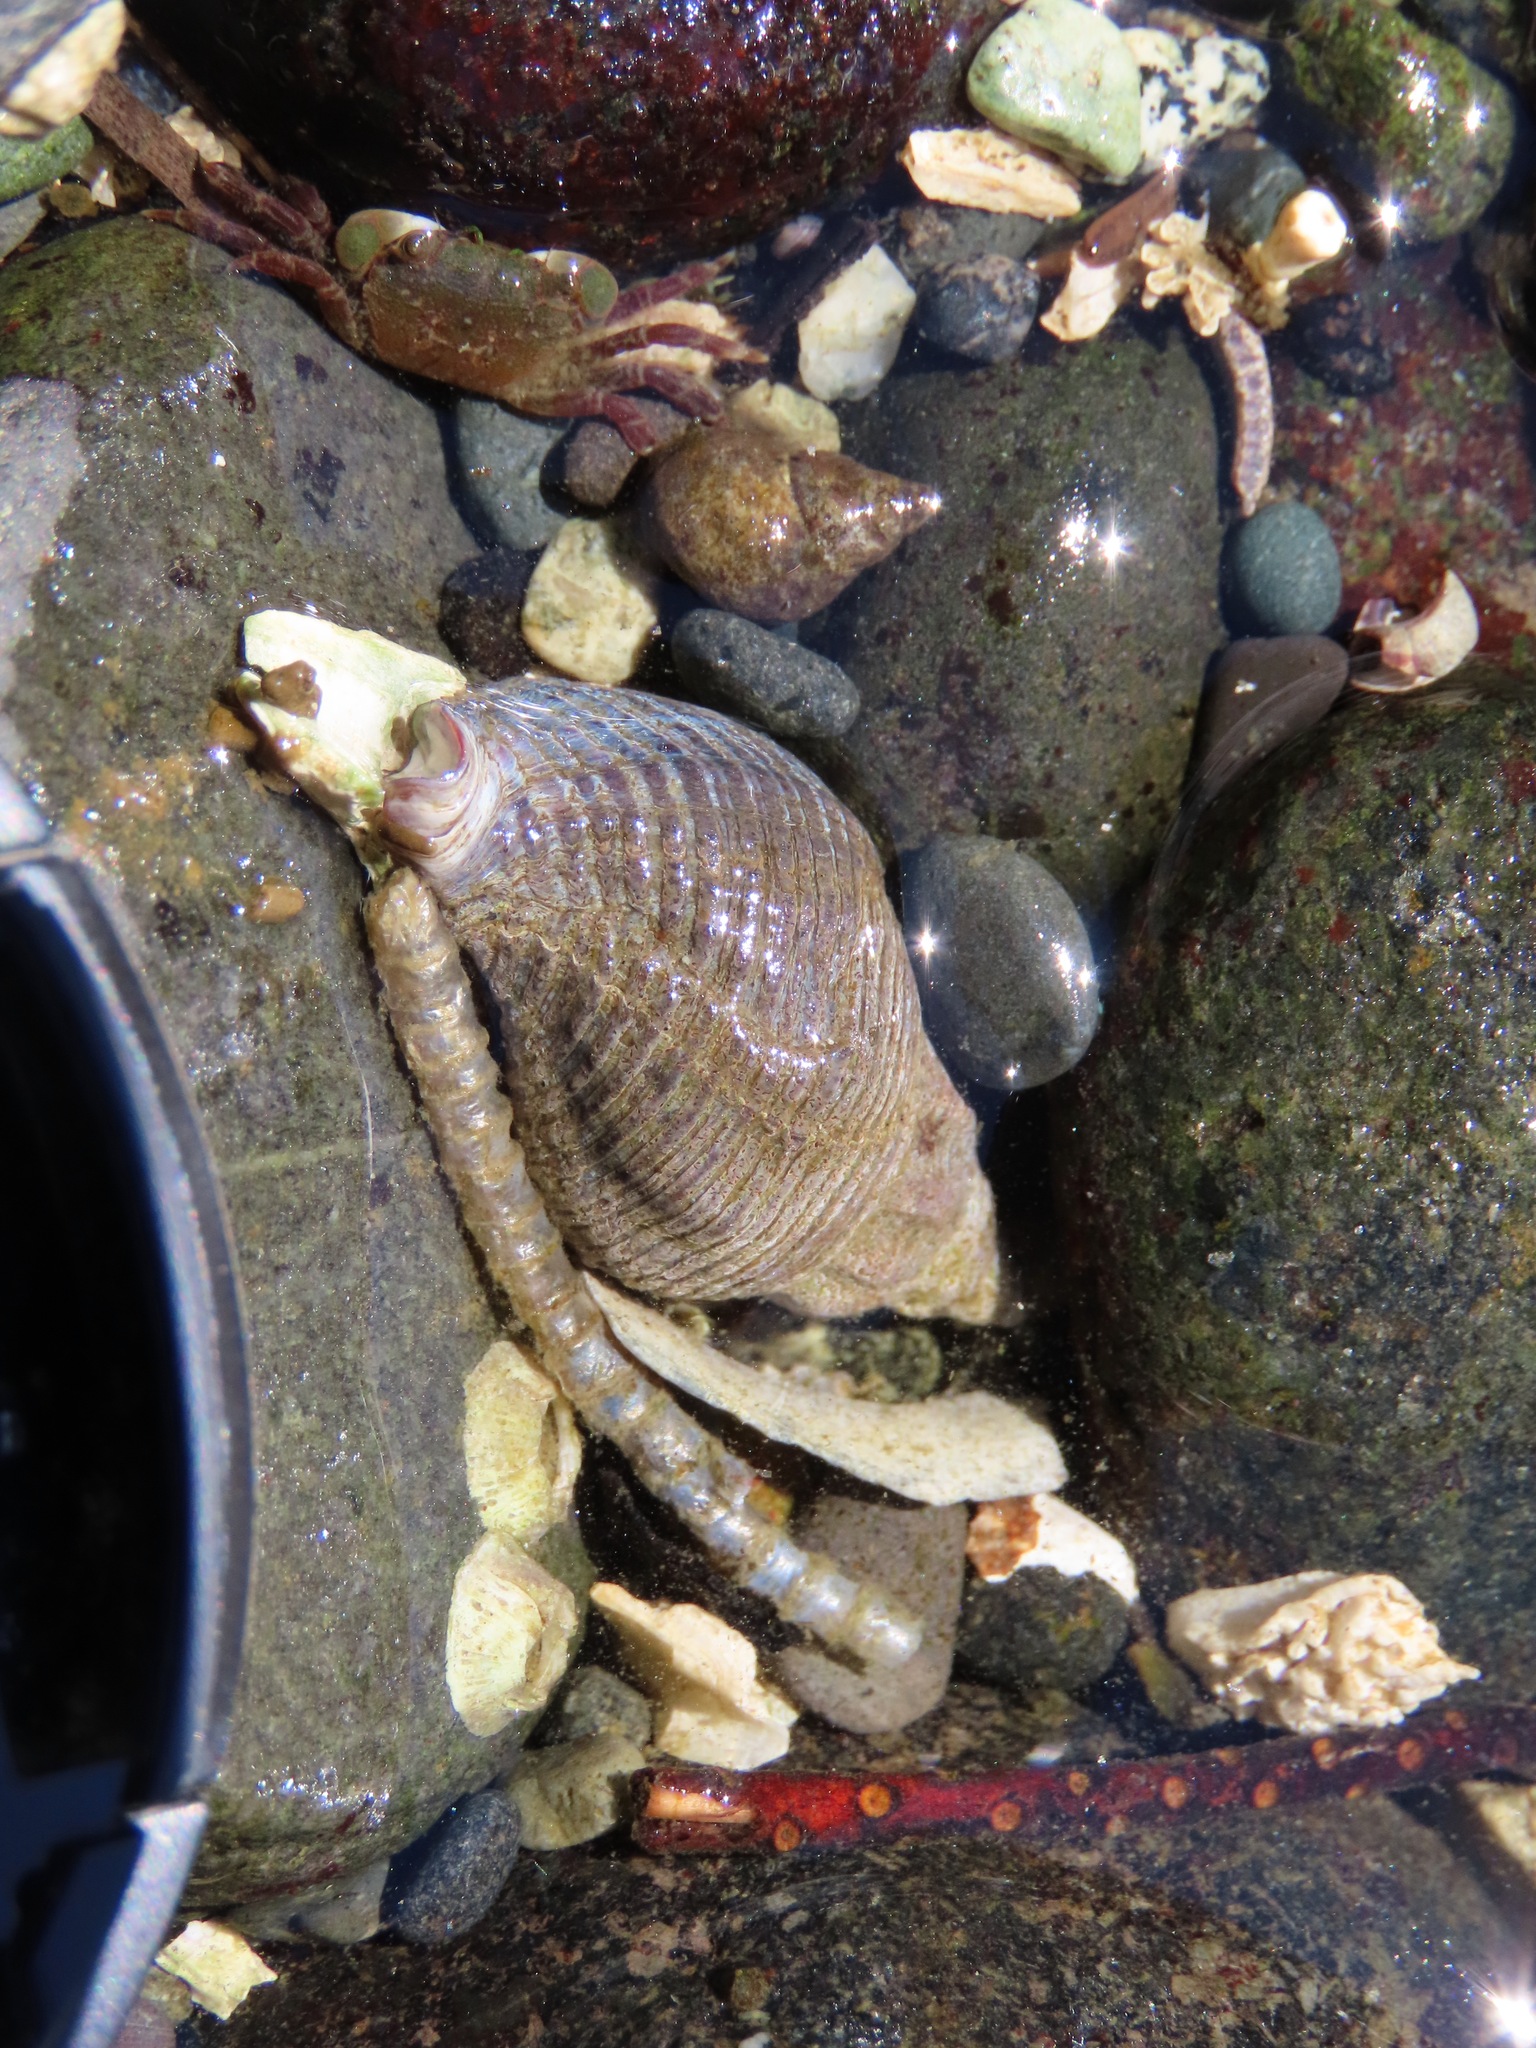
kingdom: Animalia
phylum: Mollusca
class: Gastropoda
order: Neogastropoda
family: Tudiclidae
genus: Lirabuccinum
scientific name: Lirabuccinum dirum
